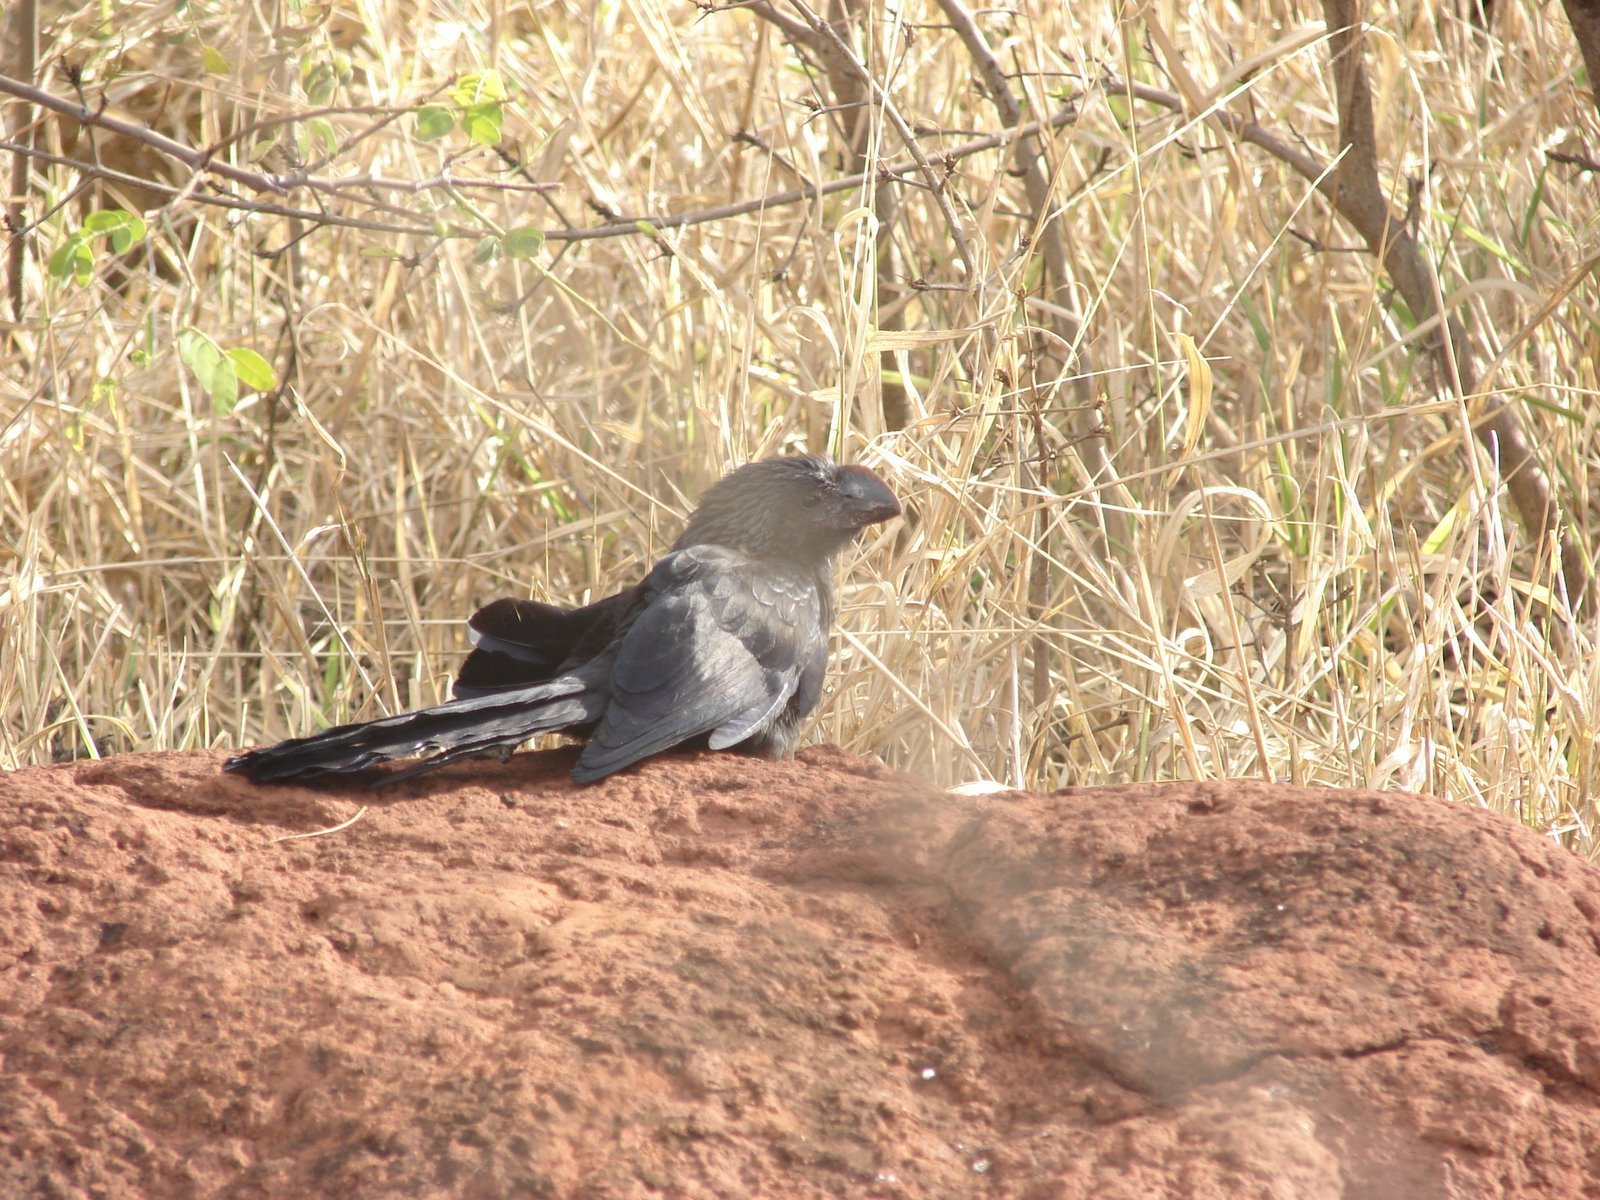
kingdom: Animalia
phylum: Chordata
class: Aves
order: Cuculiformes
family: Cuculidae
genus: Crotophaga
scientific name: Crotophaga ani
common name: Smooth-billed ani
